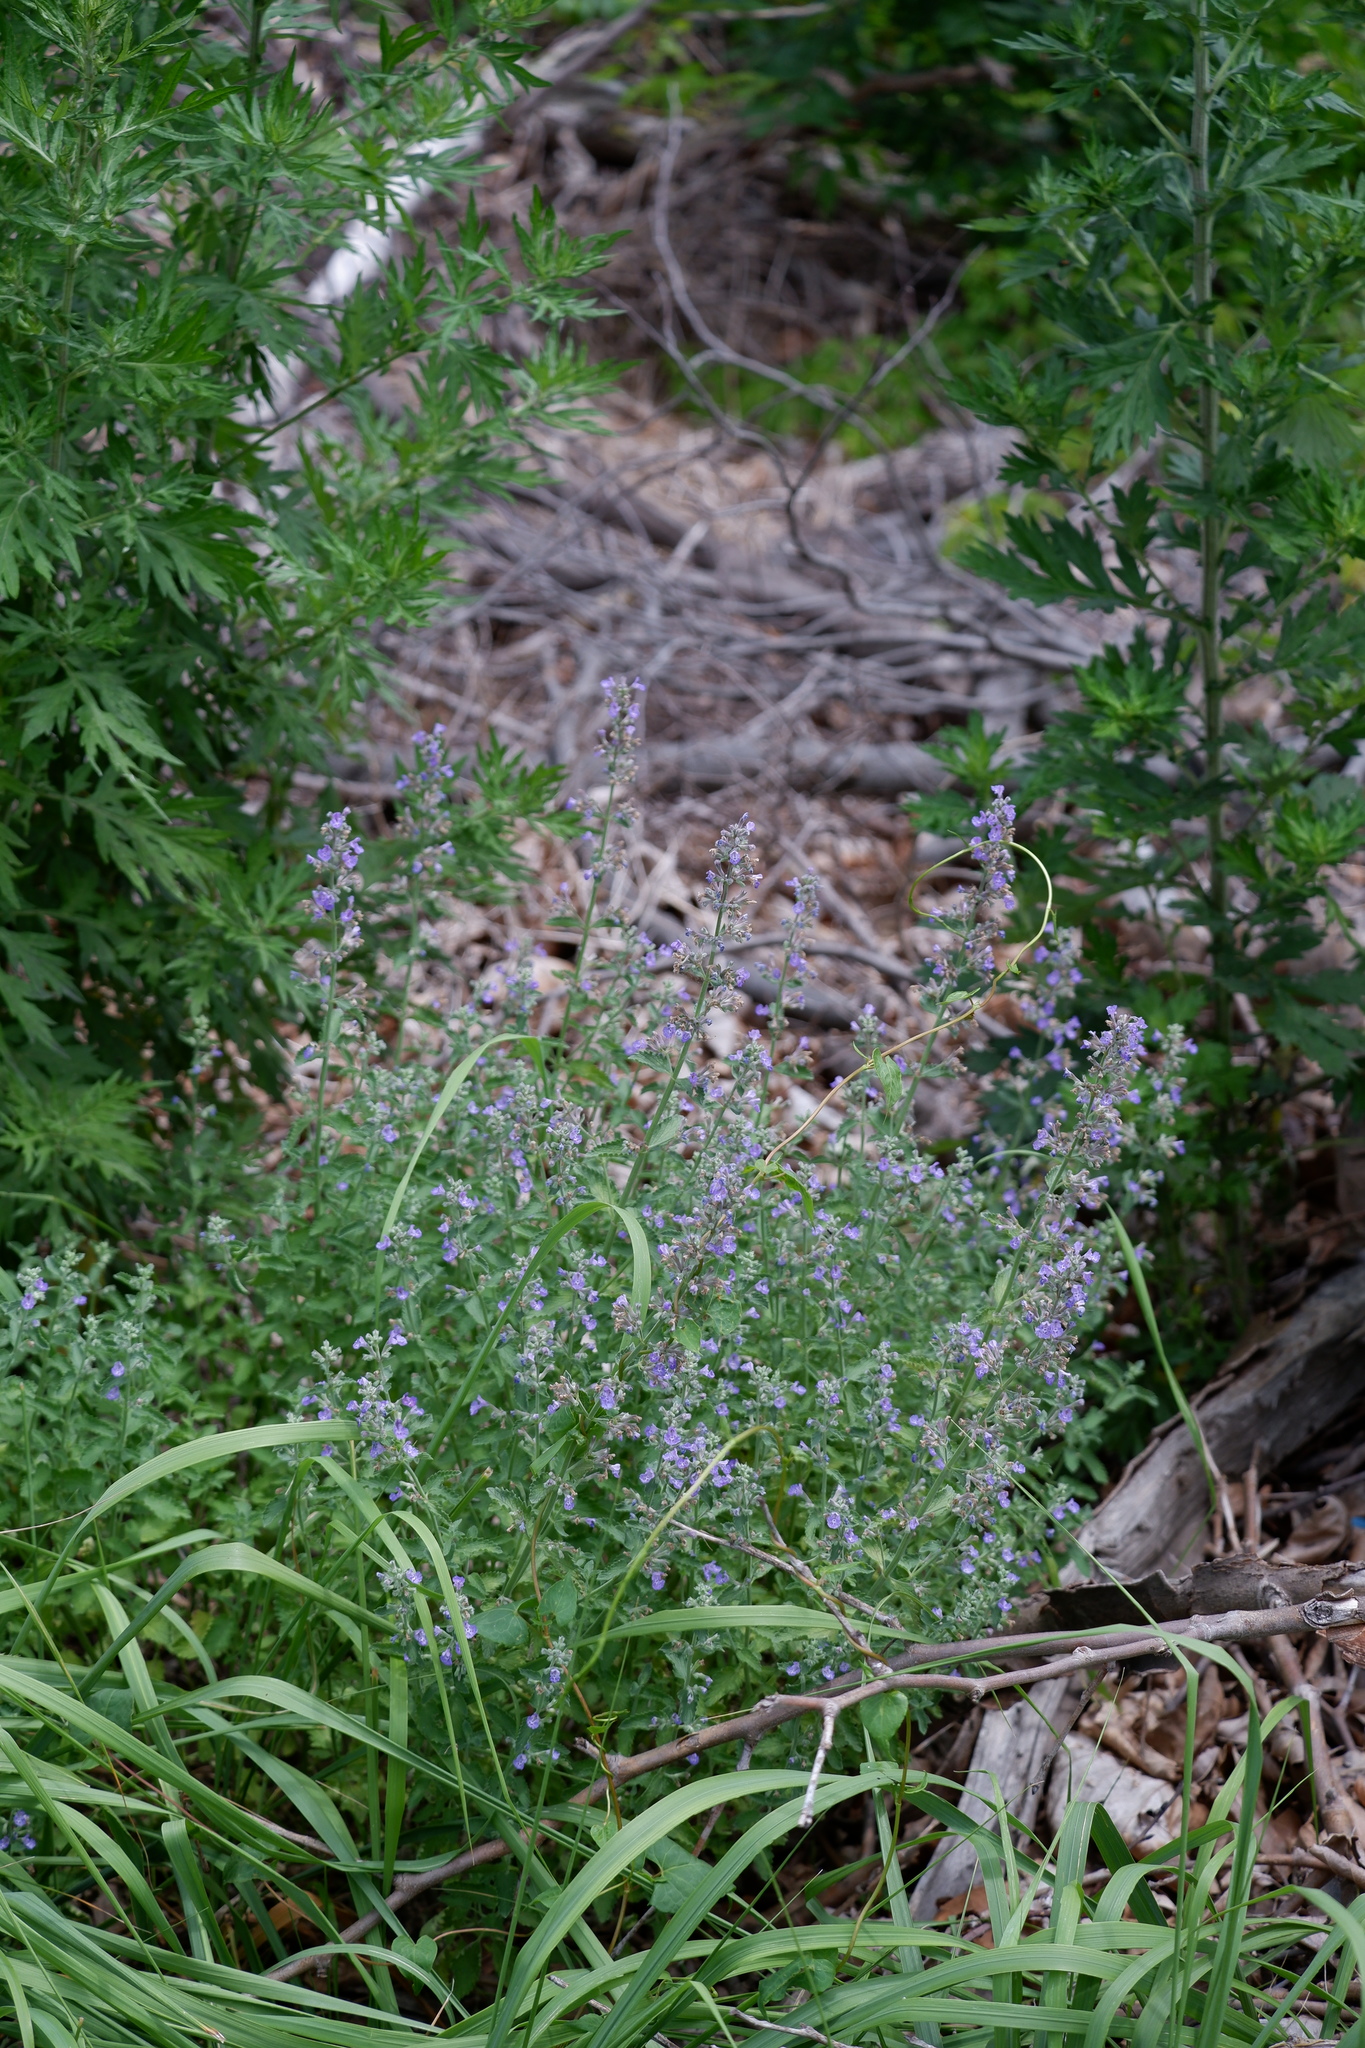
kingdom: Plantae
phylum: Tracheophyta
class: Magnoliopsida
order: Lamiales
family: Lamiaceae
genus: Nepeta
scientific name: Nepeta faassenii
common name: Catmint
